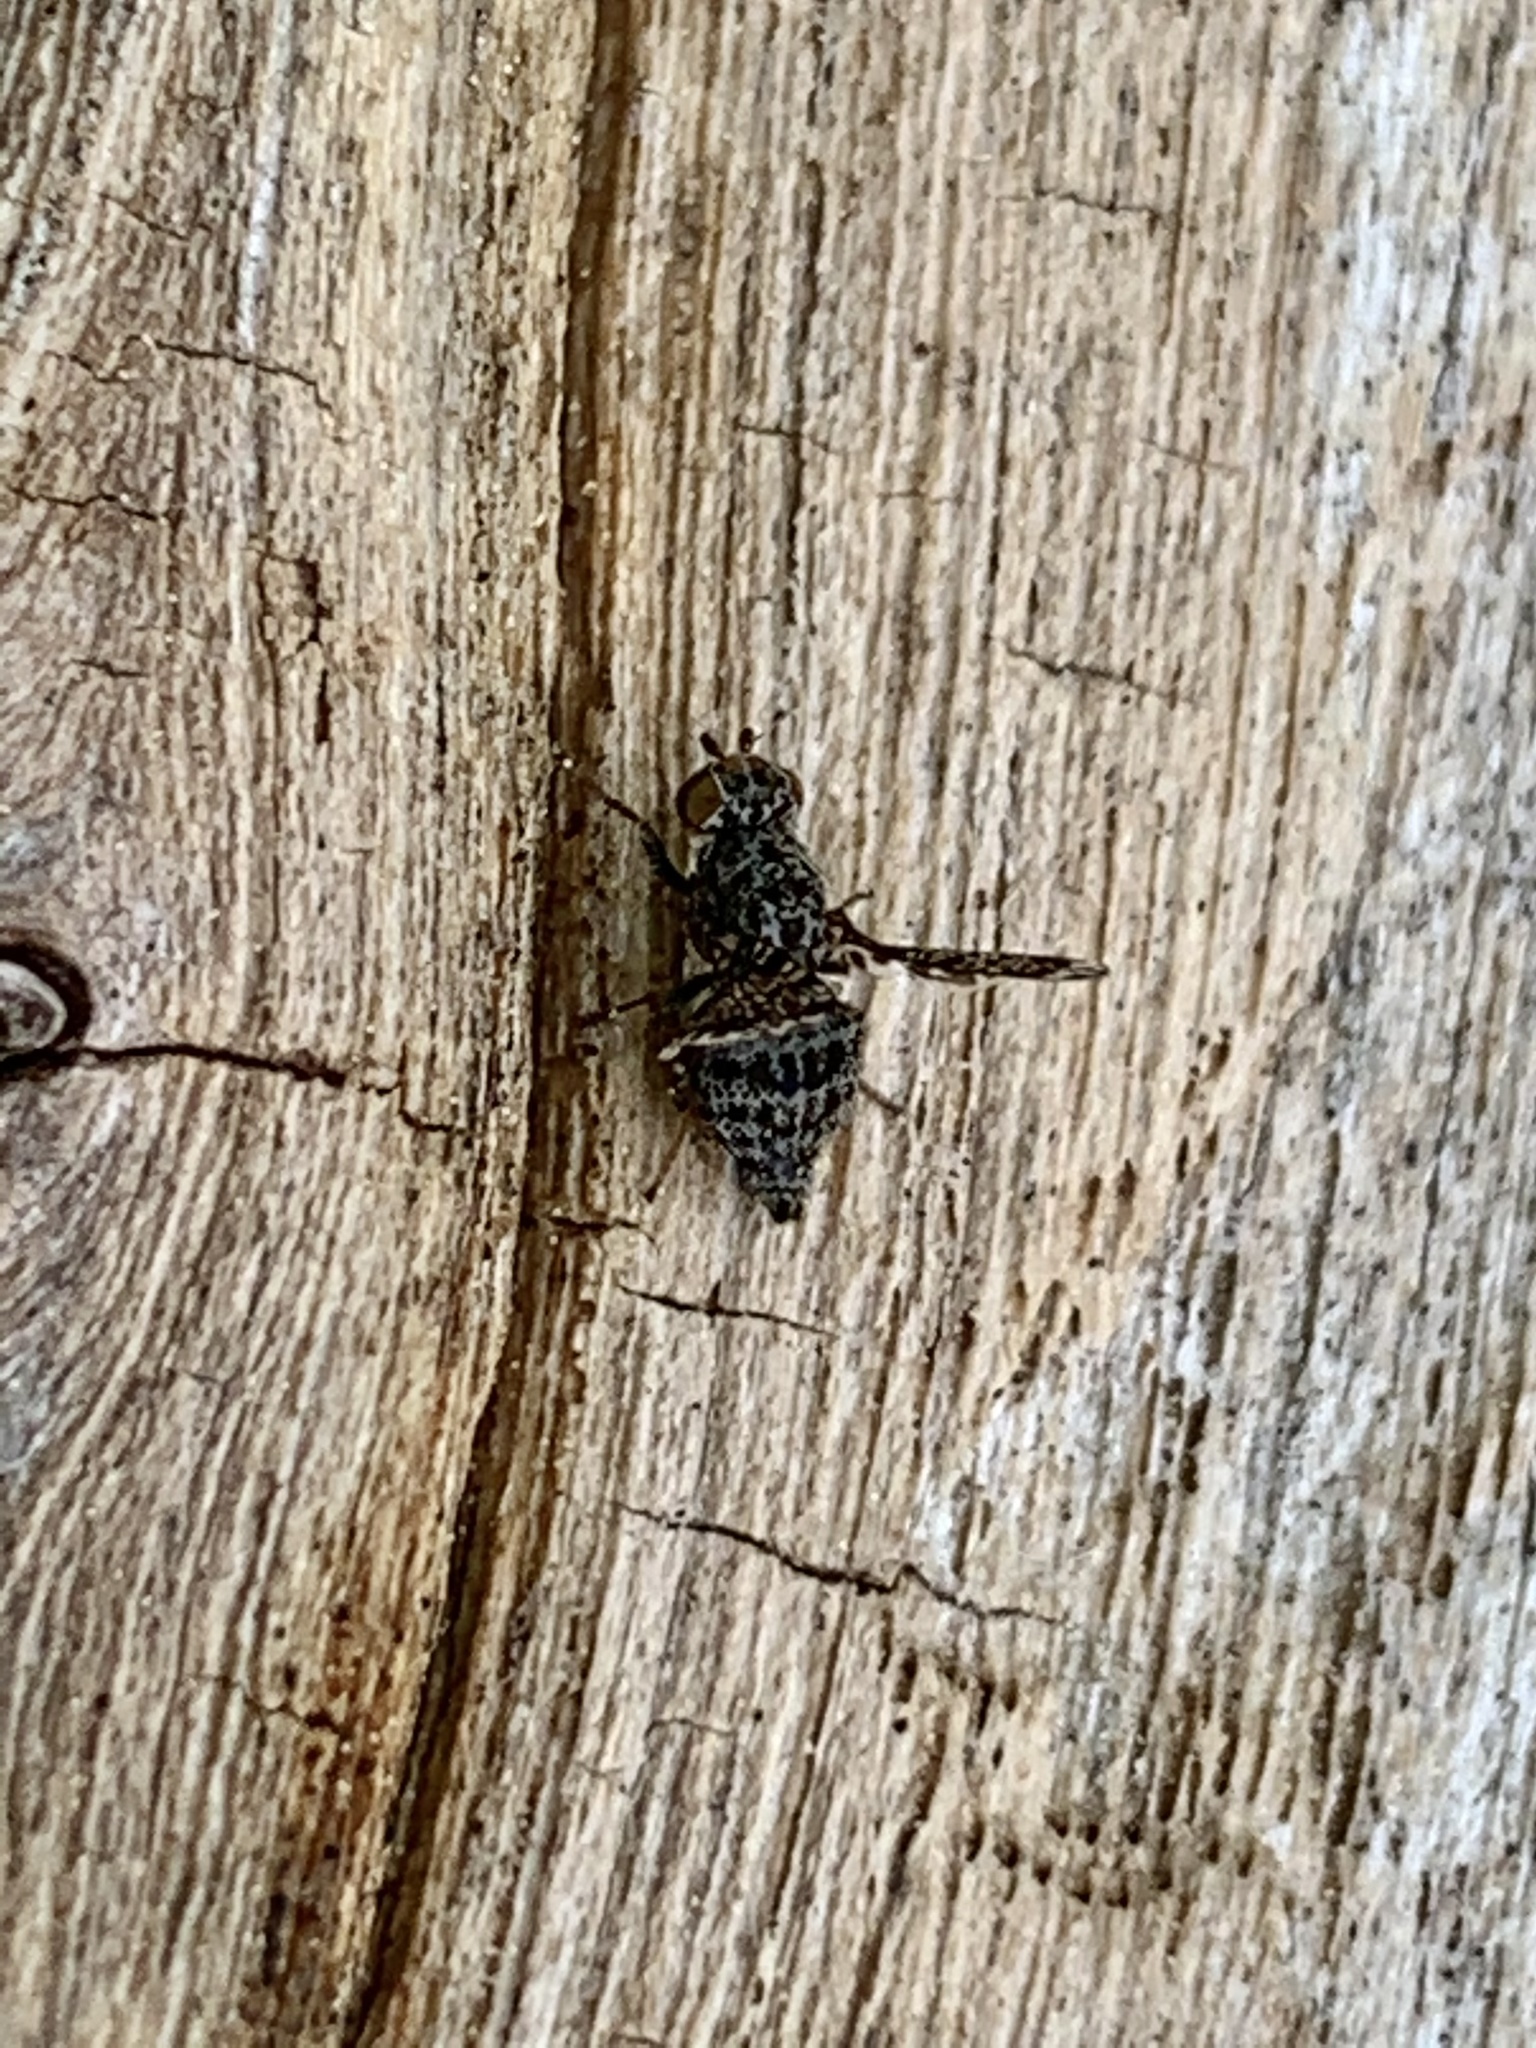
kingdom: Animalia
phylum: Arthropoda
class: Insecta
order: Diptera
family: Ulidiidae
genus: Callopistromyia
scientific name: Callopistromyia annulipes
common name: Peacock fly
